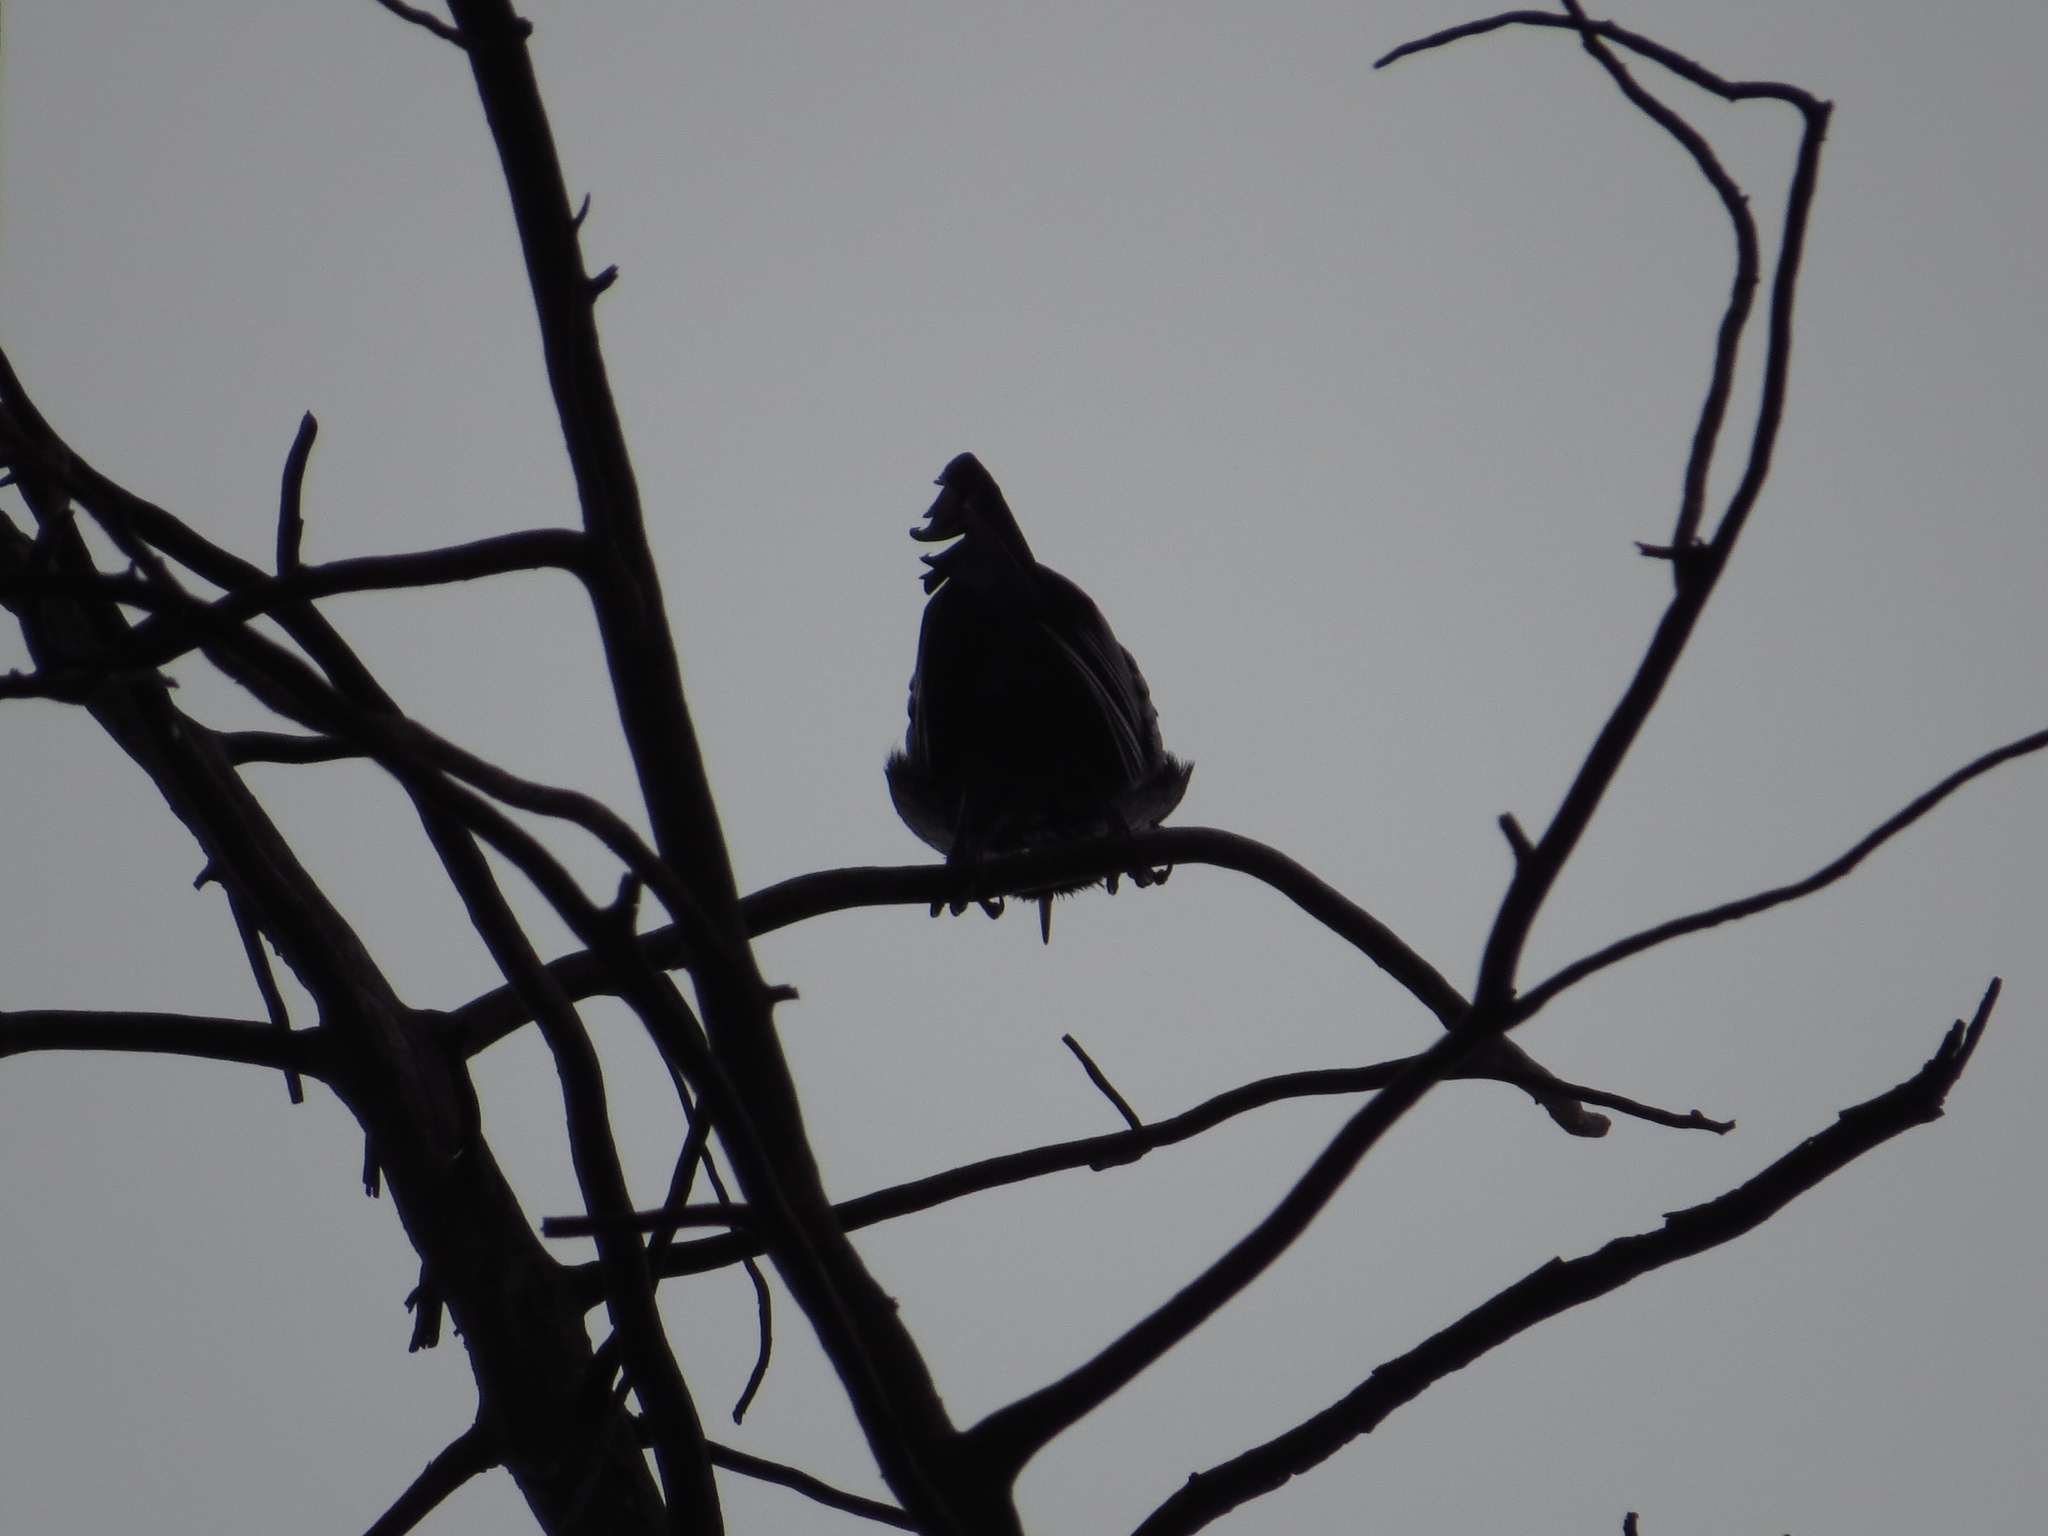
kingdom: Animalia
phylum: Chordata
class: Aves
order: Passeriformes
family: Icteridae
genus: Quiscalus
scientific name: Quiscalus mexicanus
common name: Great-tailed grackle
